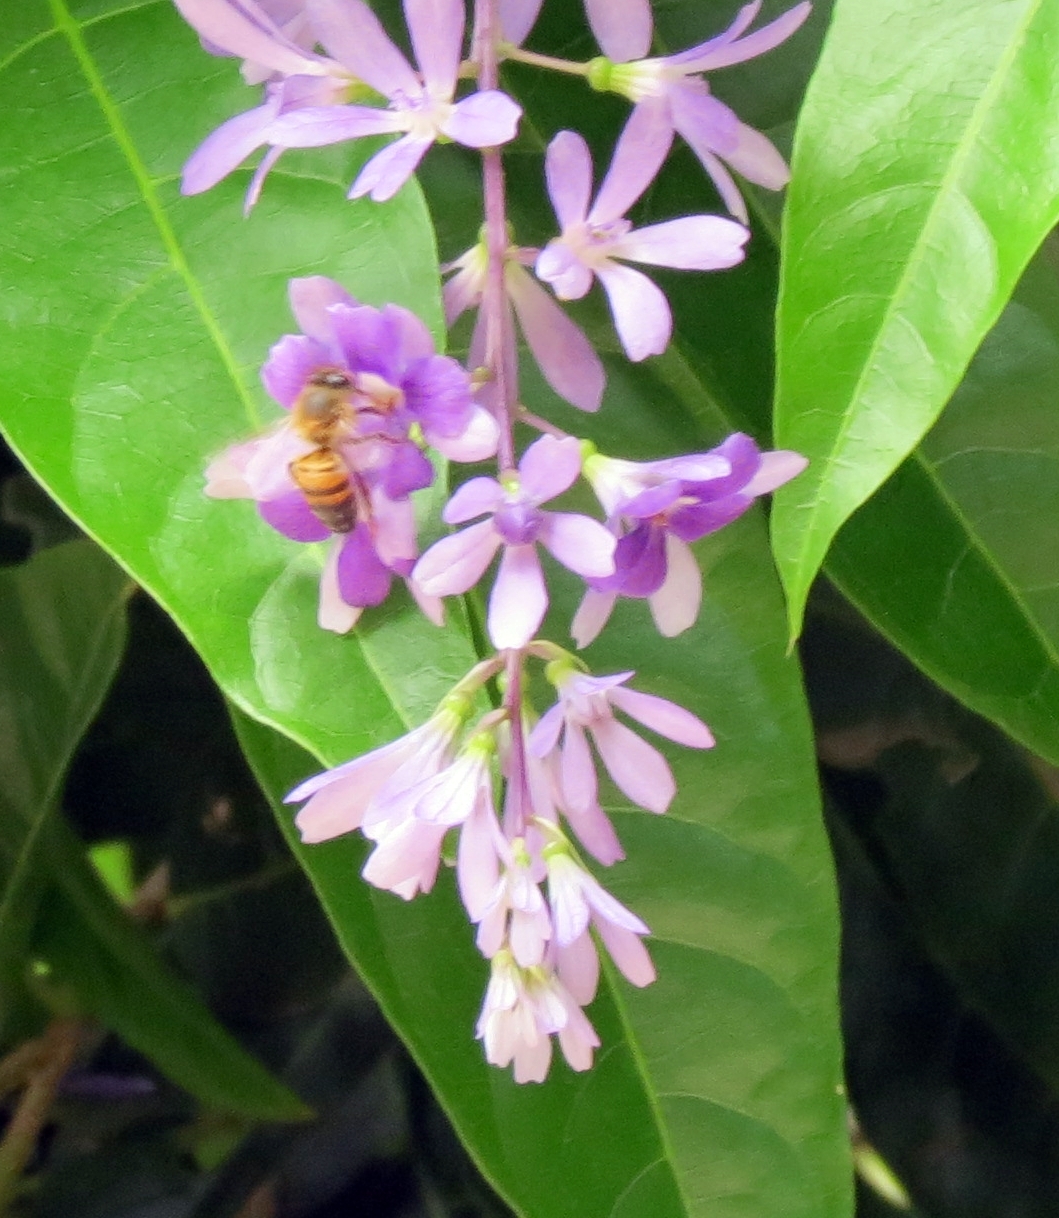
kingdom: Animalia
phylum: Arthropoda
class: Insecta
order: Hymenoptera
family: Apidae
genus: Apis
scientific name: Apis mellifera
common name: Honey bee
